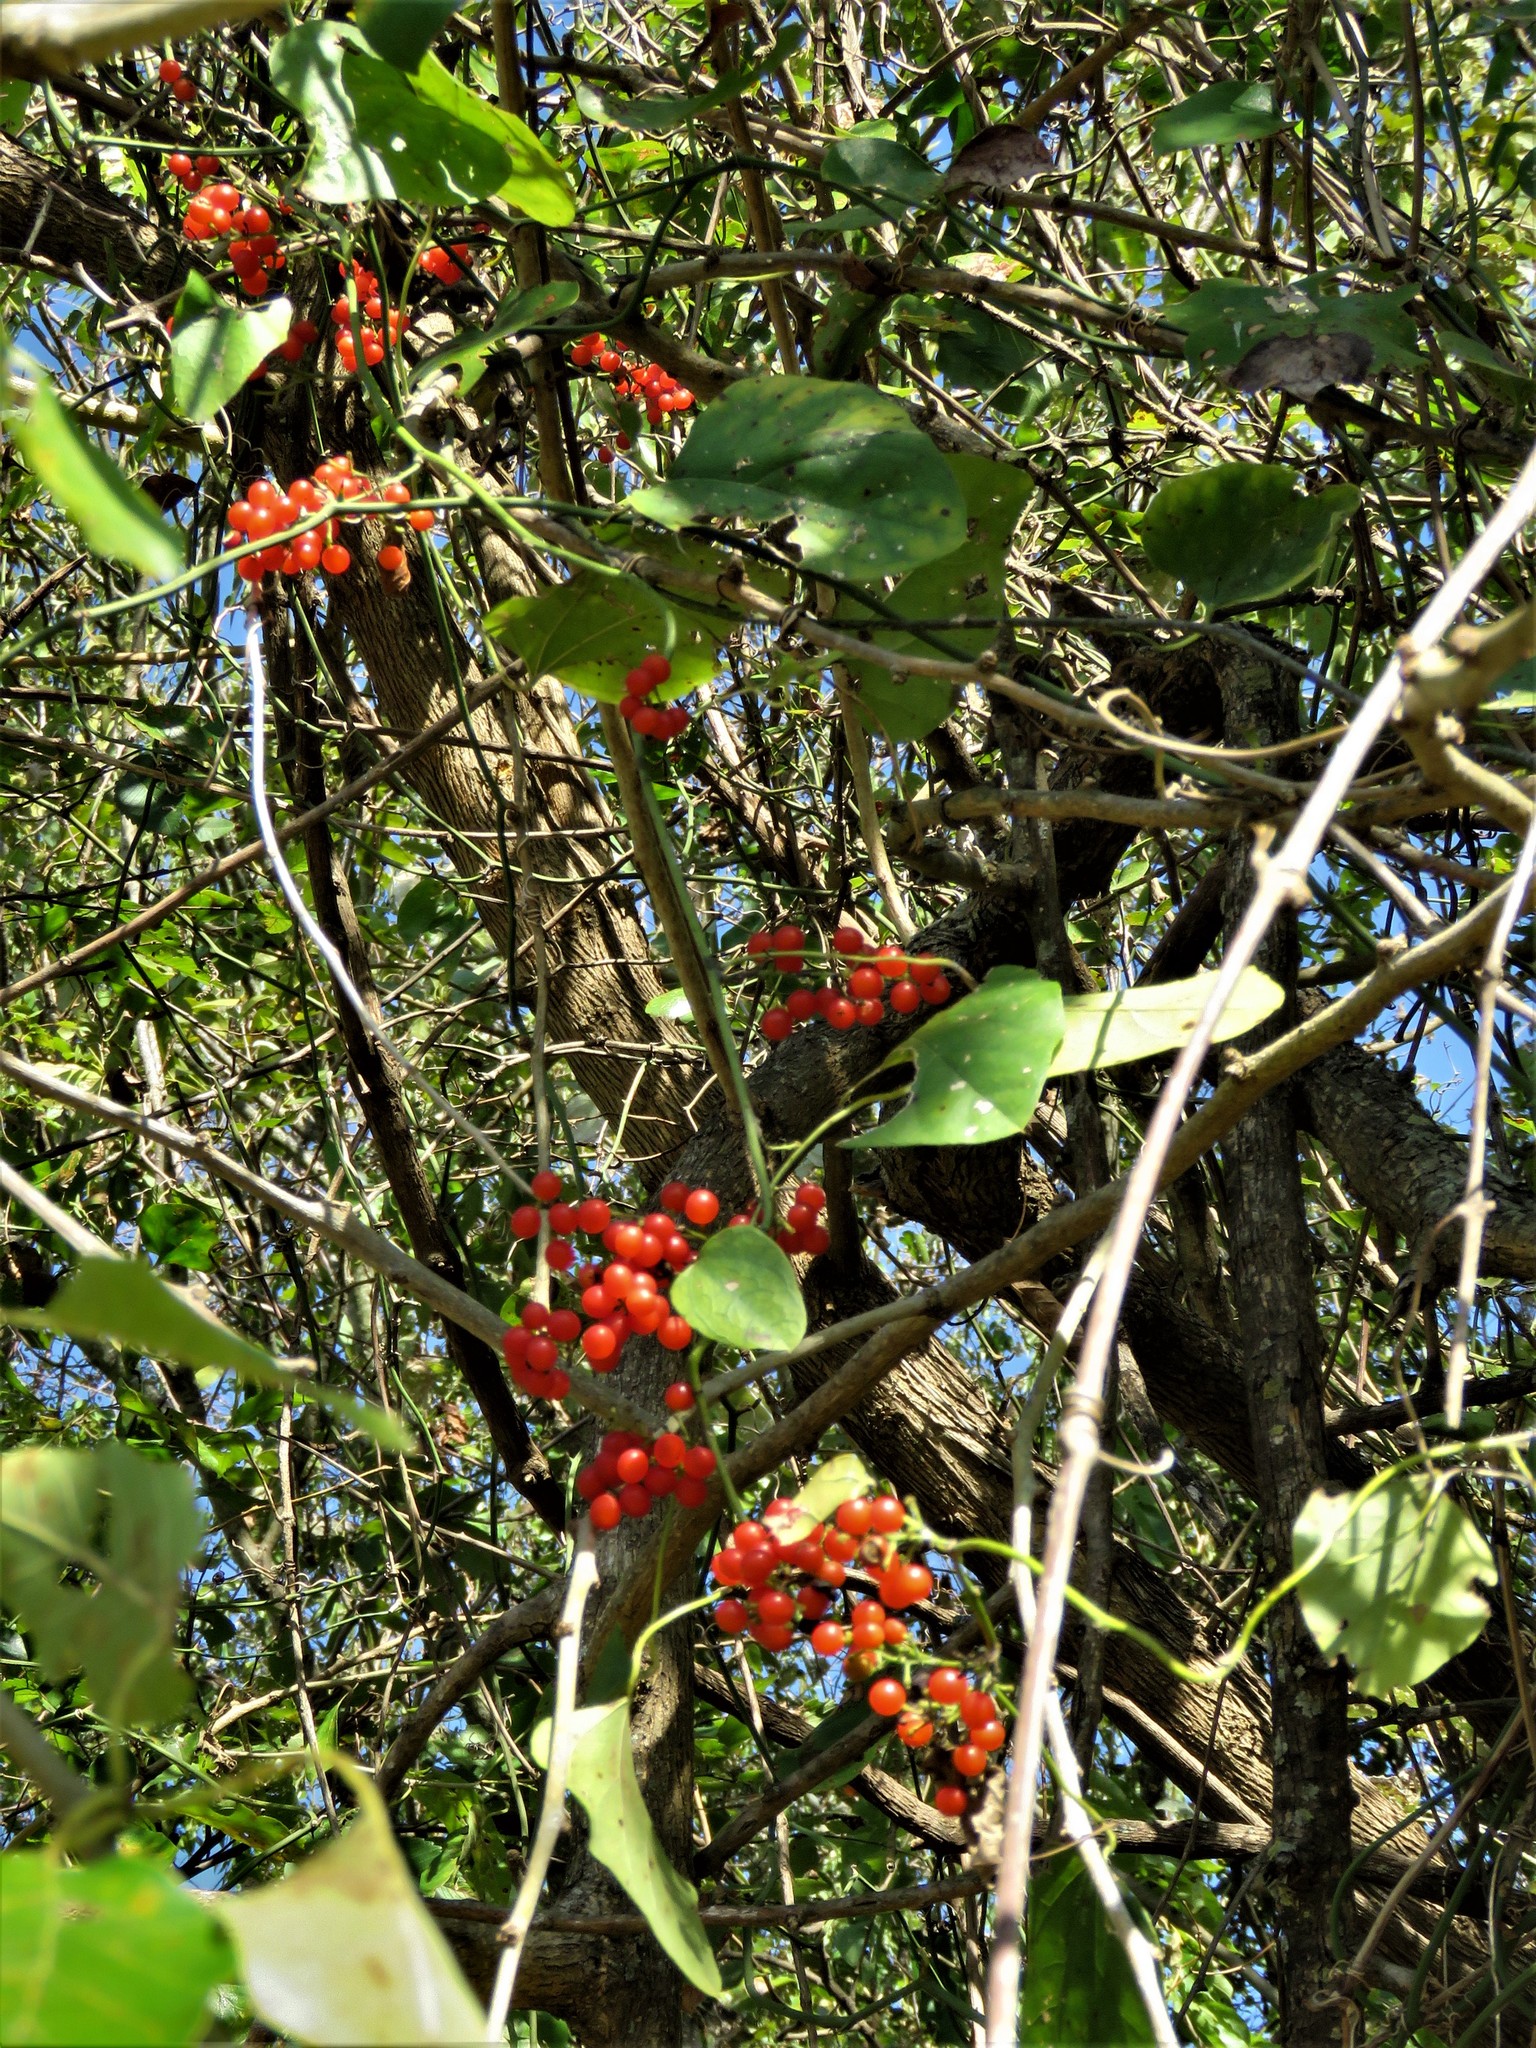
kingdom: Plantae
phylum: Tracheophyta
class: Magnoliopsida
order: Ranunculales
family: Menispermaceae
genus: Cocculus
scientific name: Cocculus carolinus
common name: Carolina moonseed
